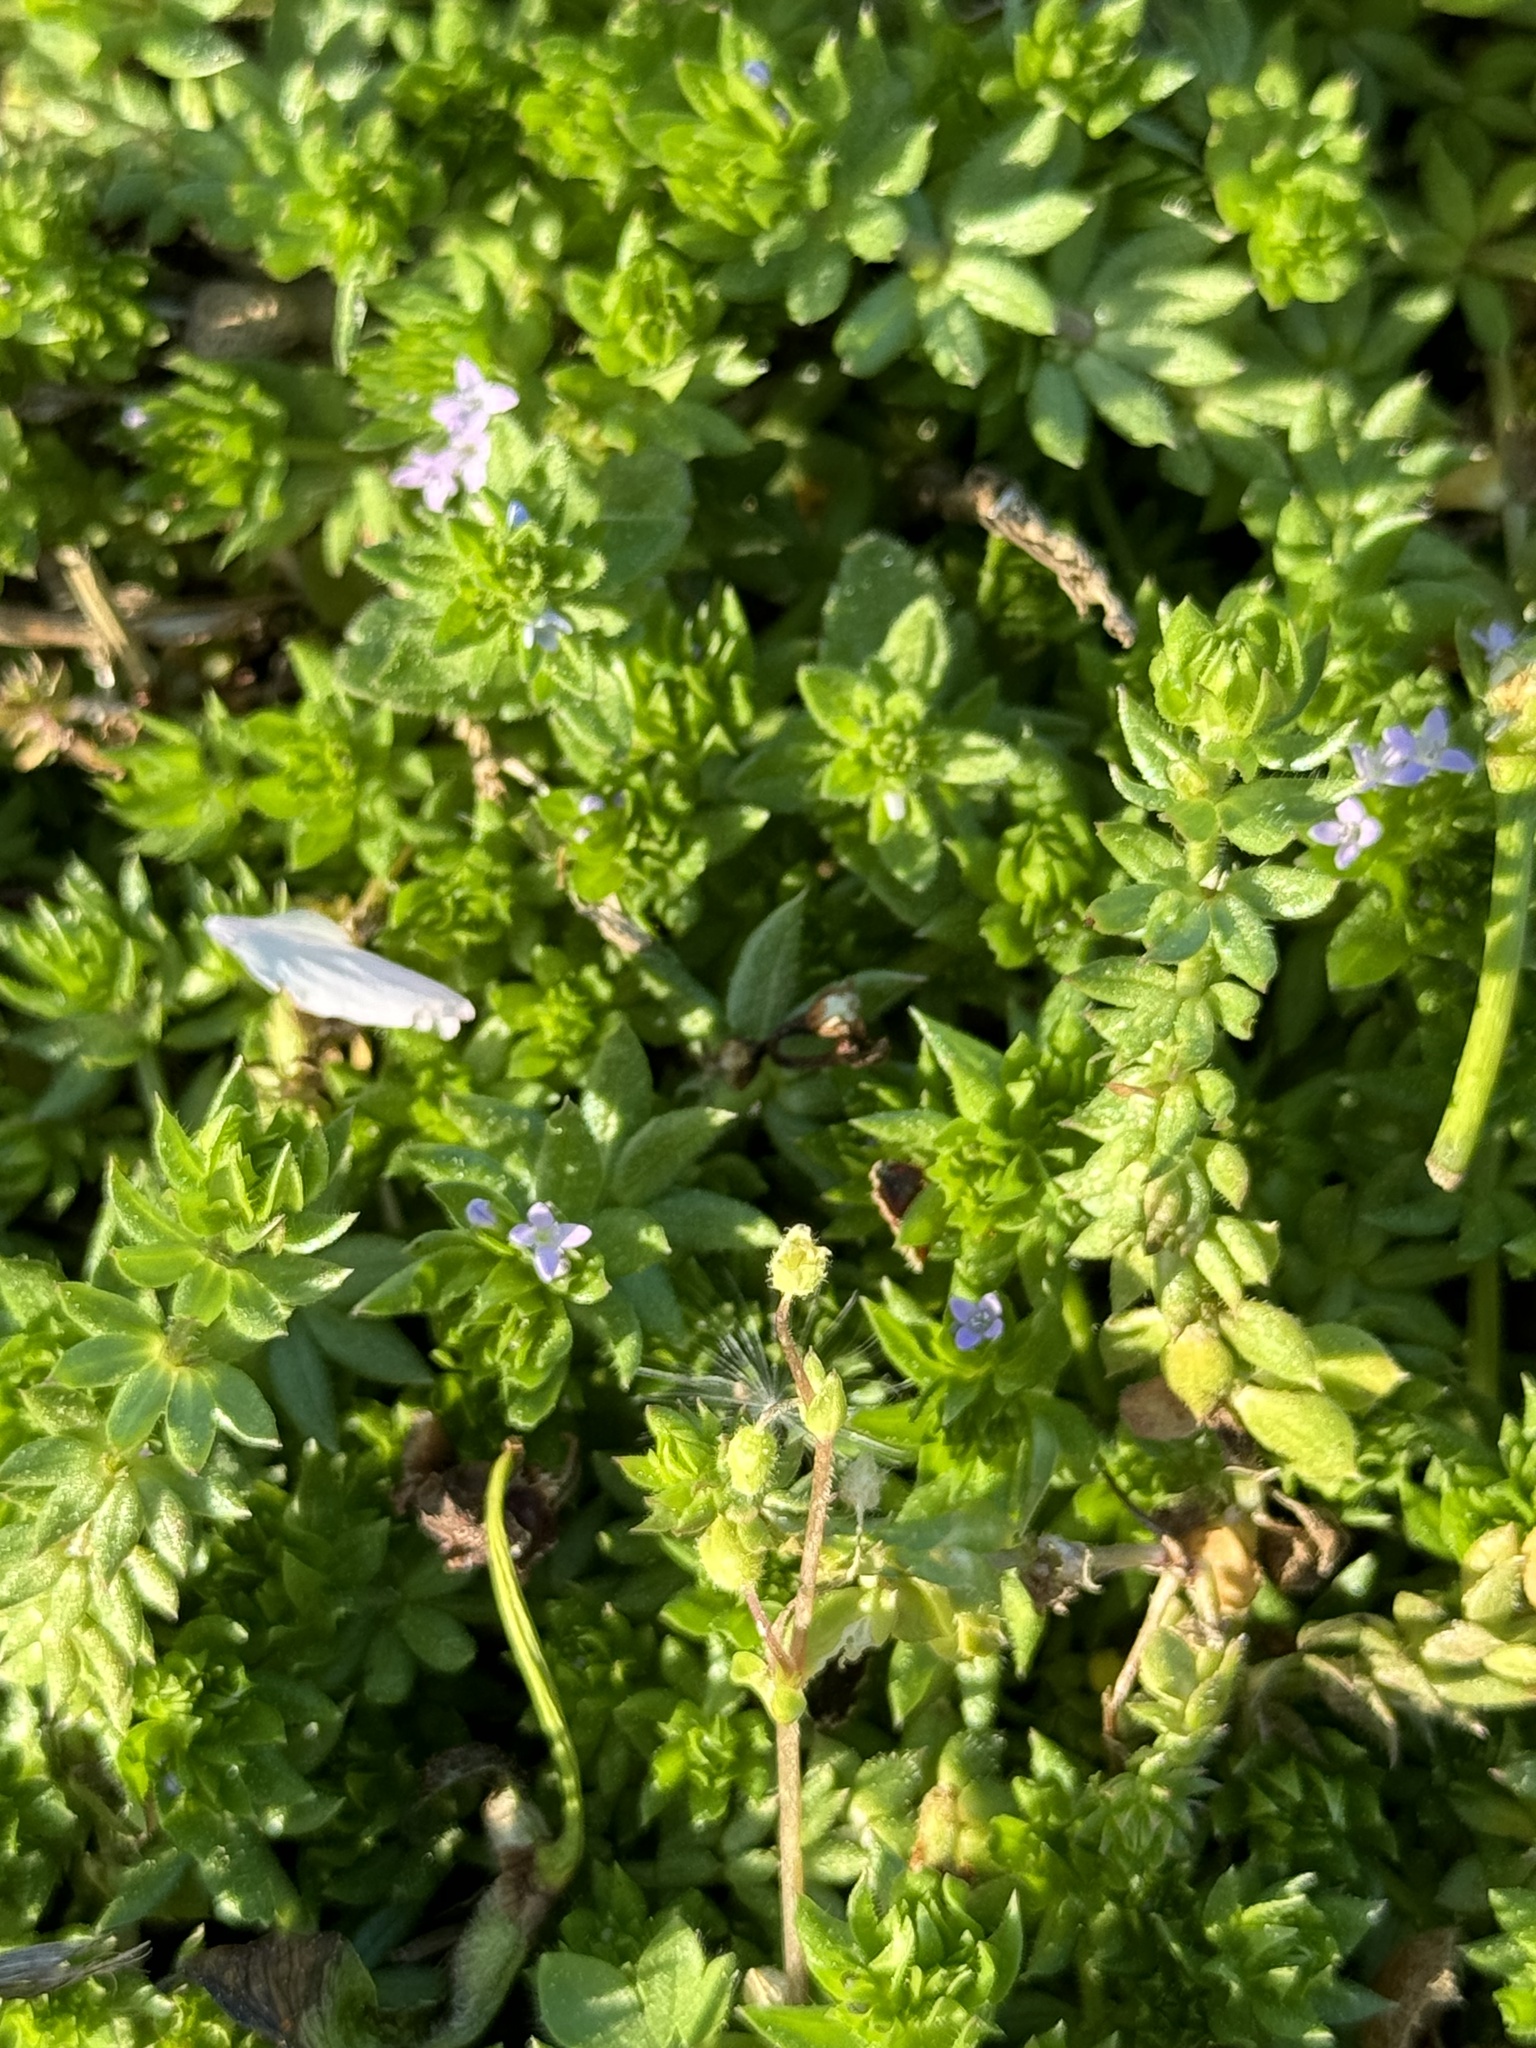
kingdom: Plantae
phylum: Tracheophyta
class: Magnoliopsida
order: Gentianales
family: Rubiaceae
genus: Sherardia
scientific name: Sherardia arvensis
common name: Field madder
